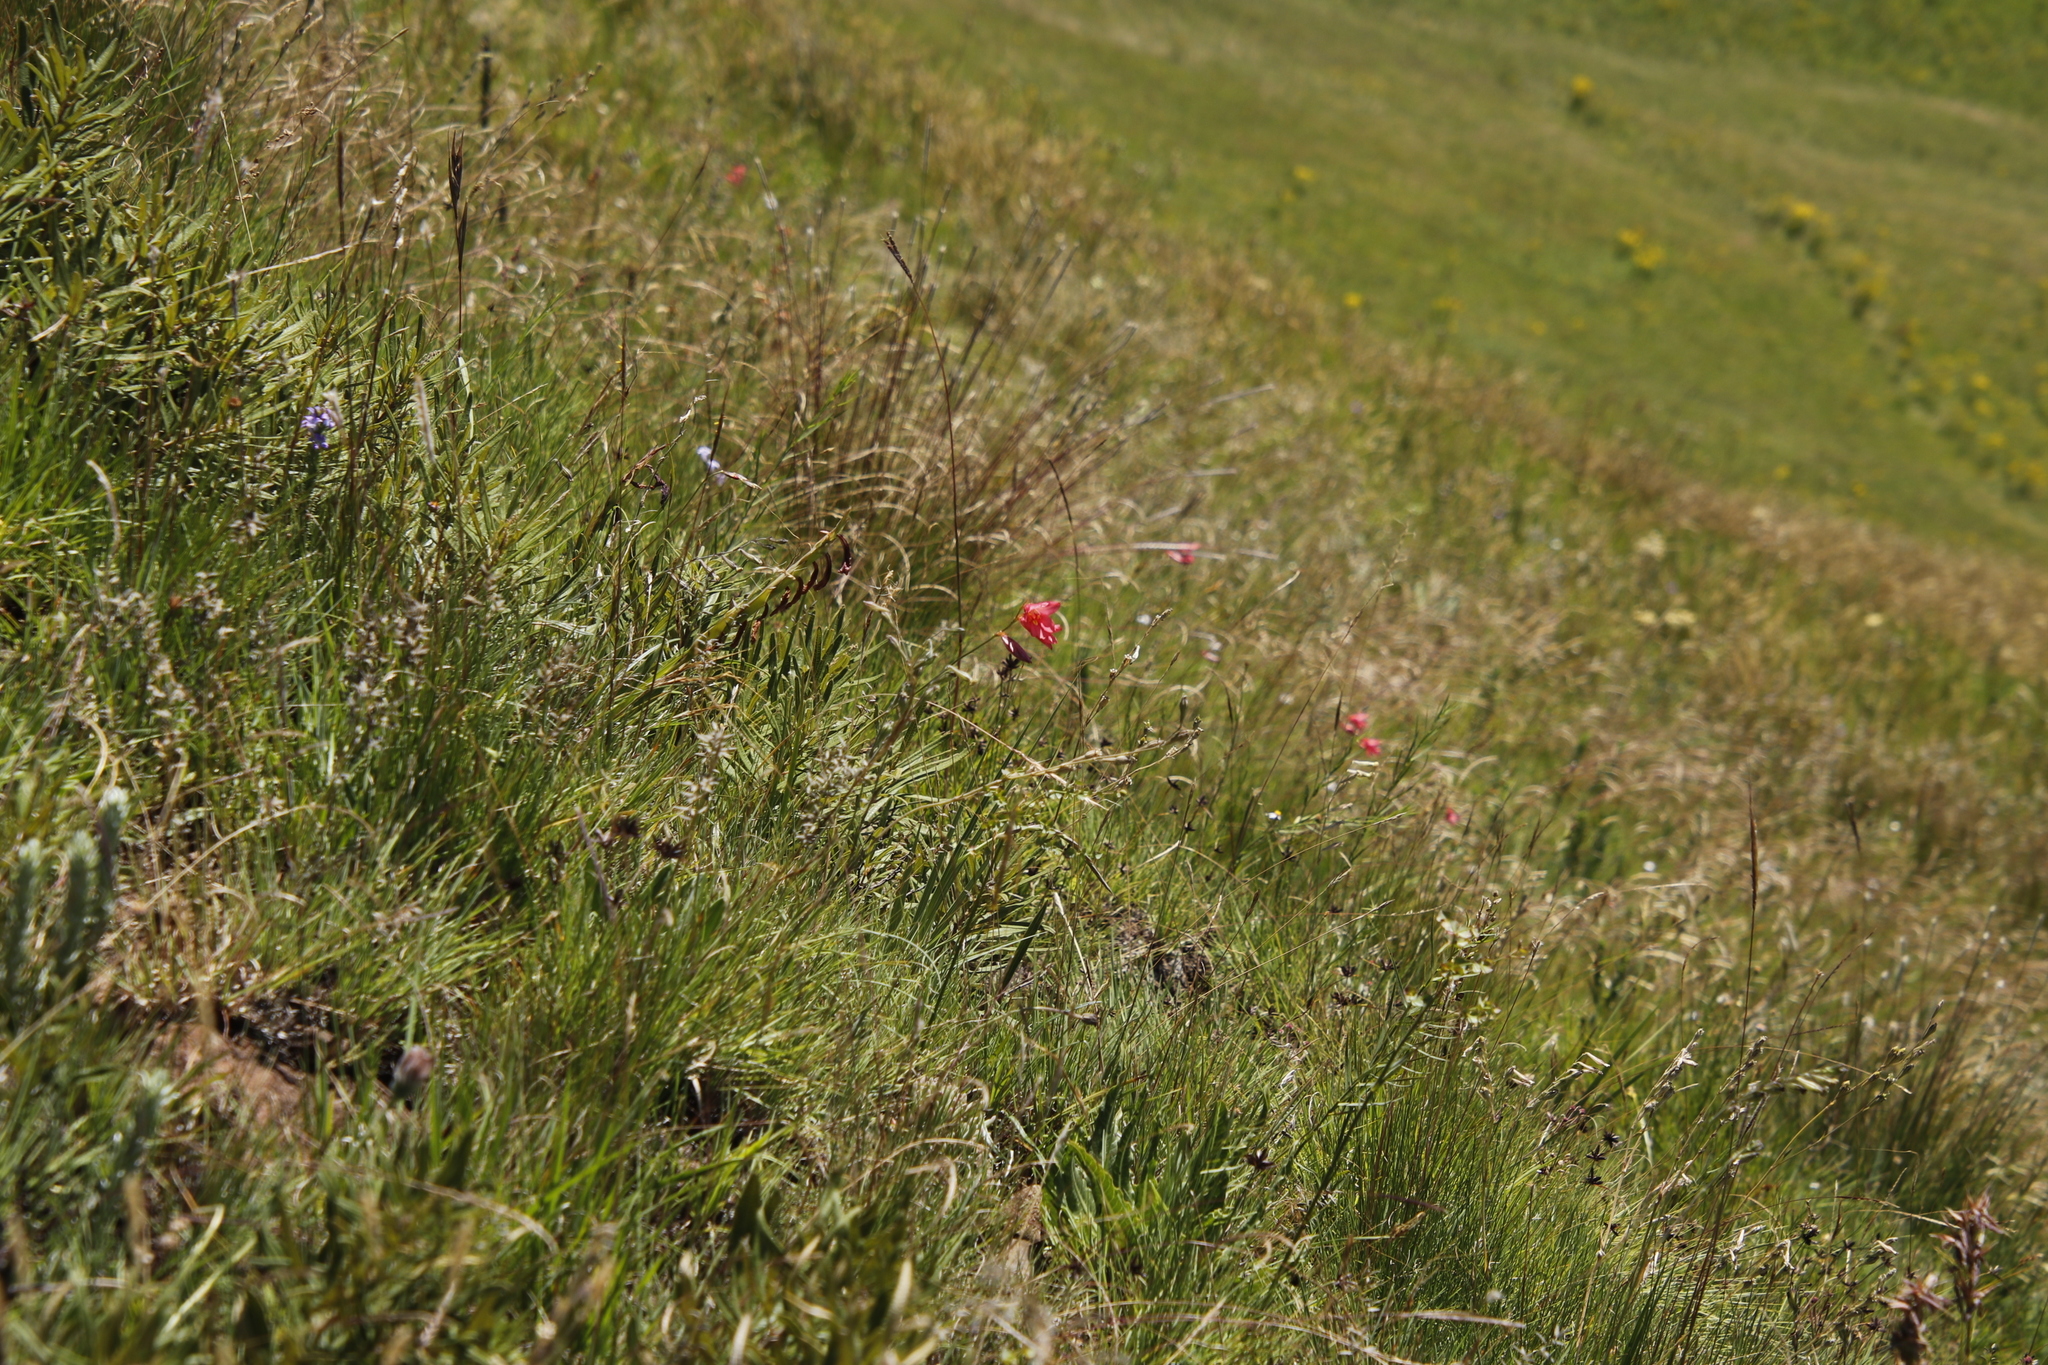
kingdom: Plantae
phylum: Tracheophyta
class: Liliopsida
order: Asparagales
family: Iridaceae
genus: Tritonia
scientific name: Tritonia drakensbergensis
